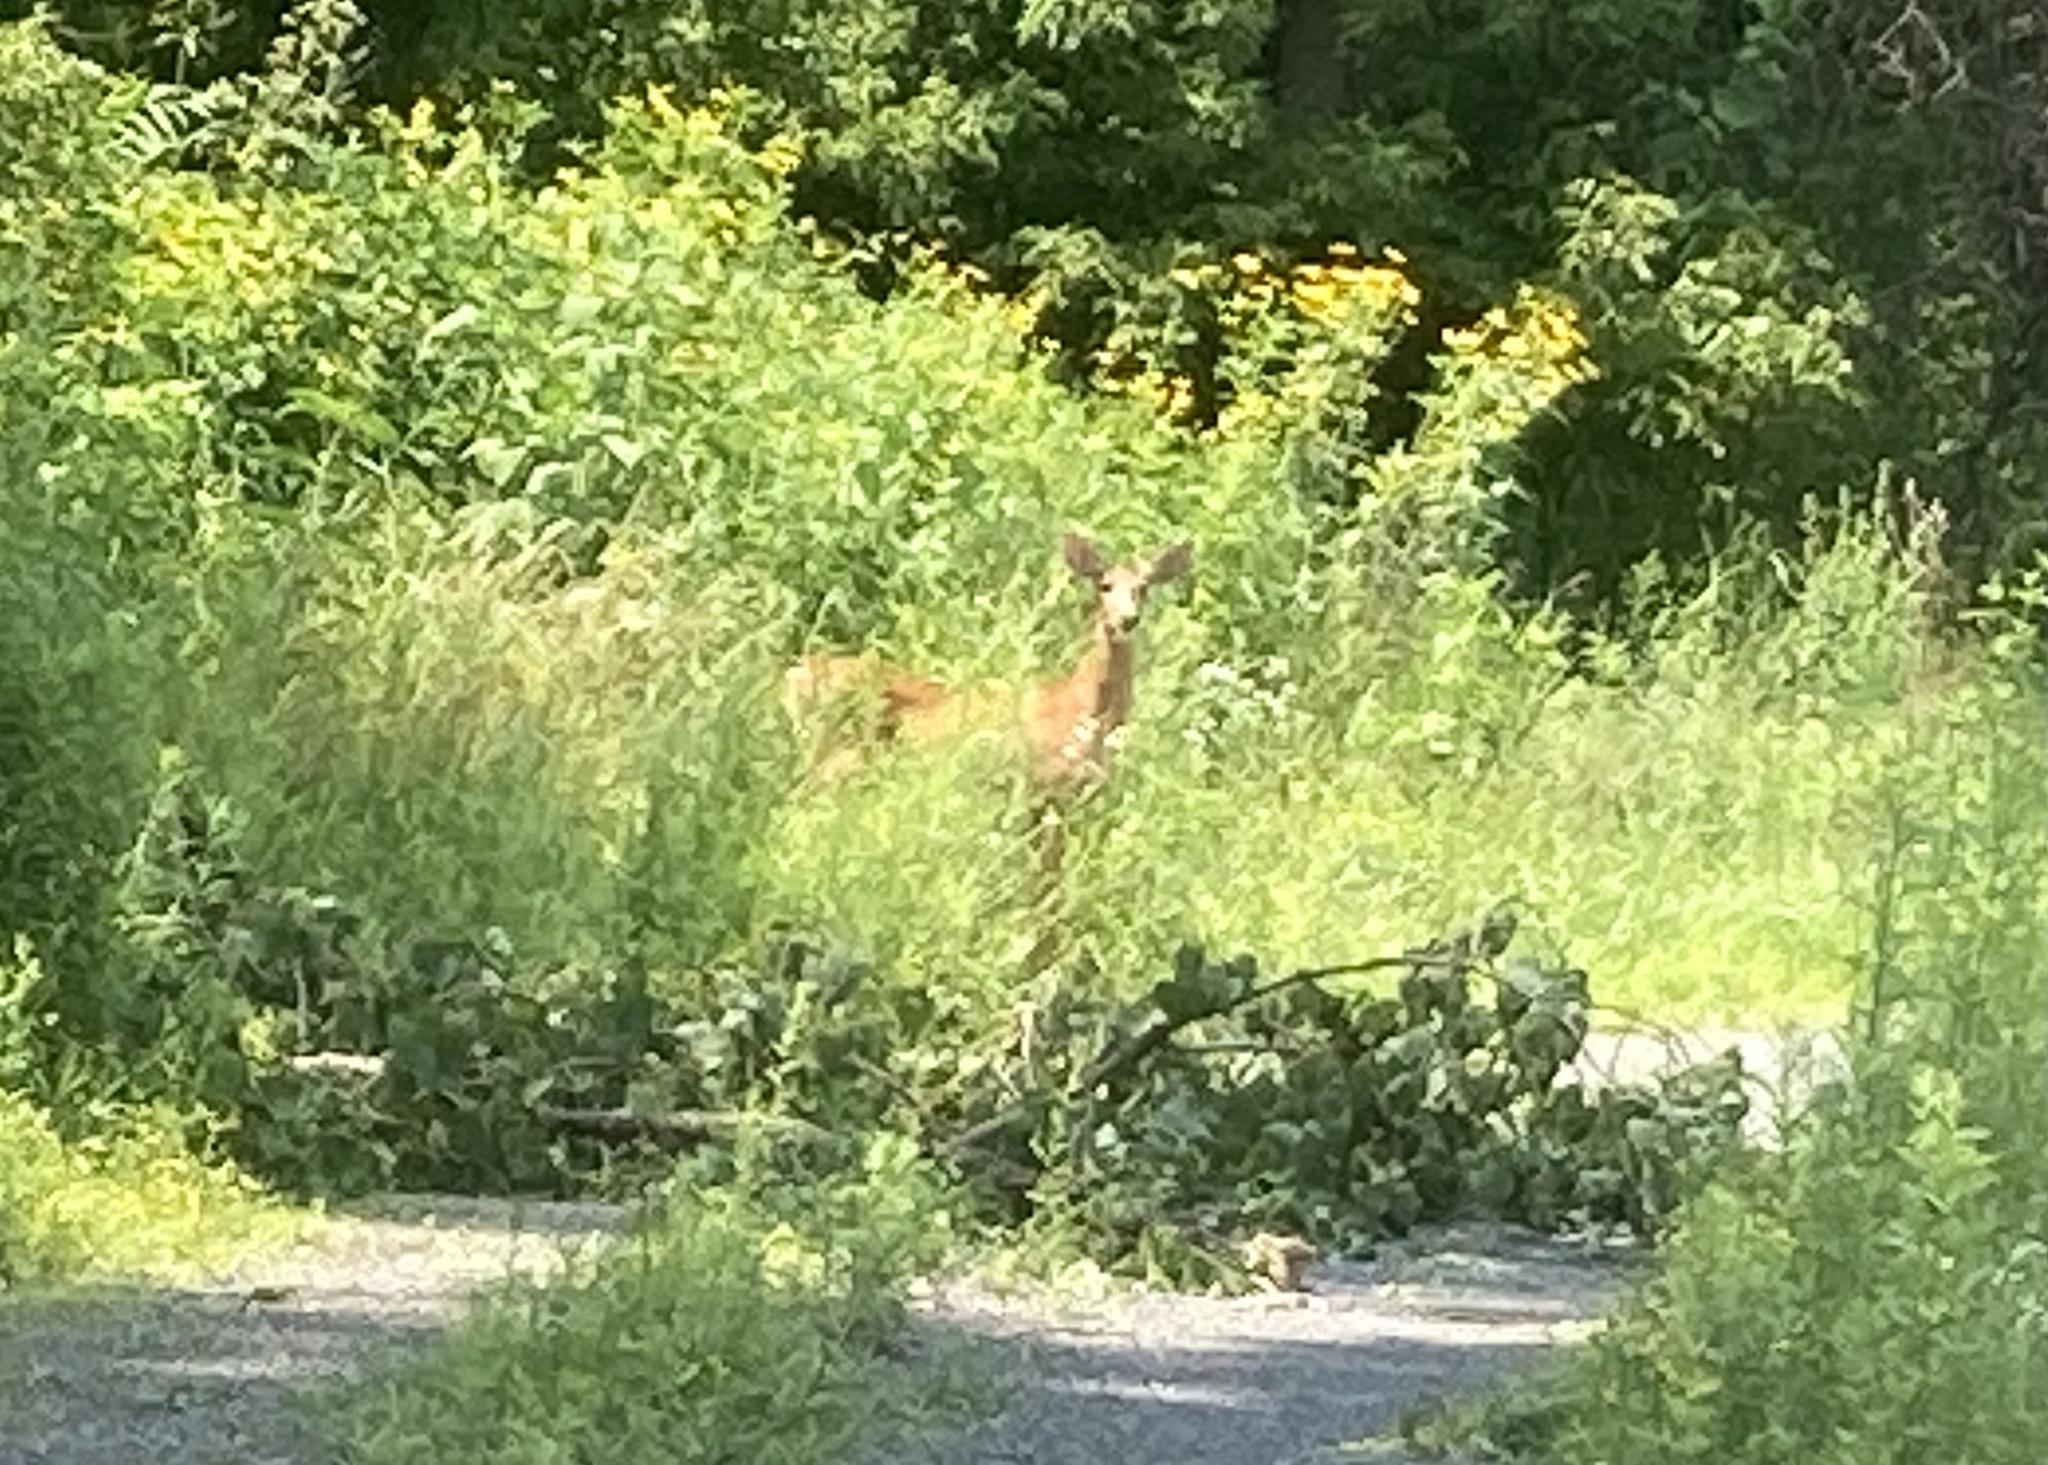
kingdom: Animalia
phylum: Chordata
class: Mammalia
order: Artiodactyla
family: Cervidae
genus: Odocoileus
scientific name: Odocoileus virginianus
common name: White-tailed deer
